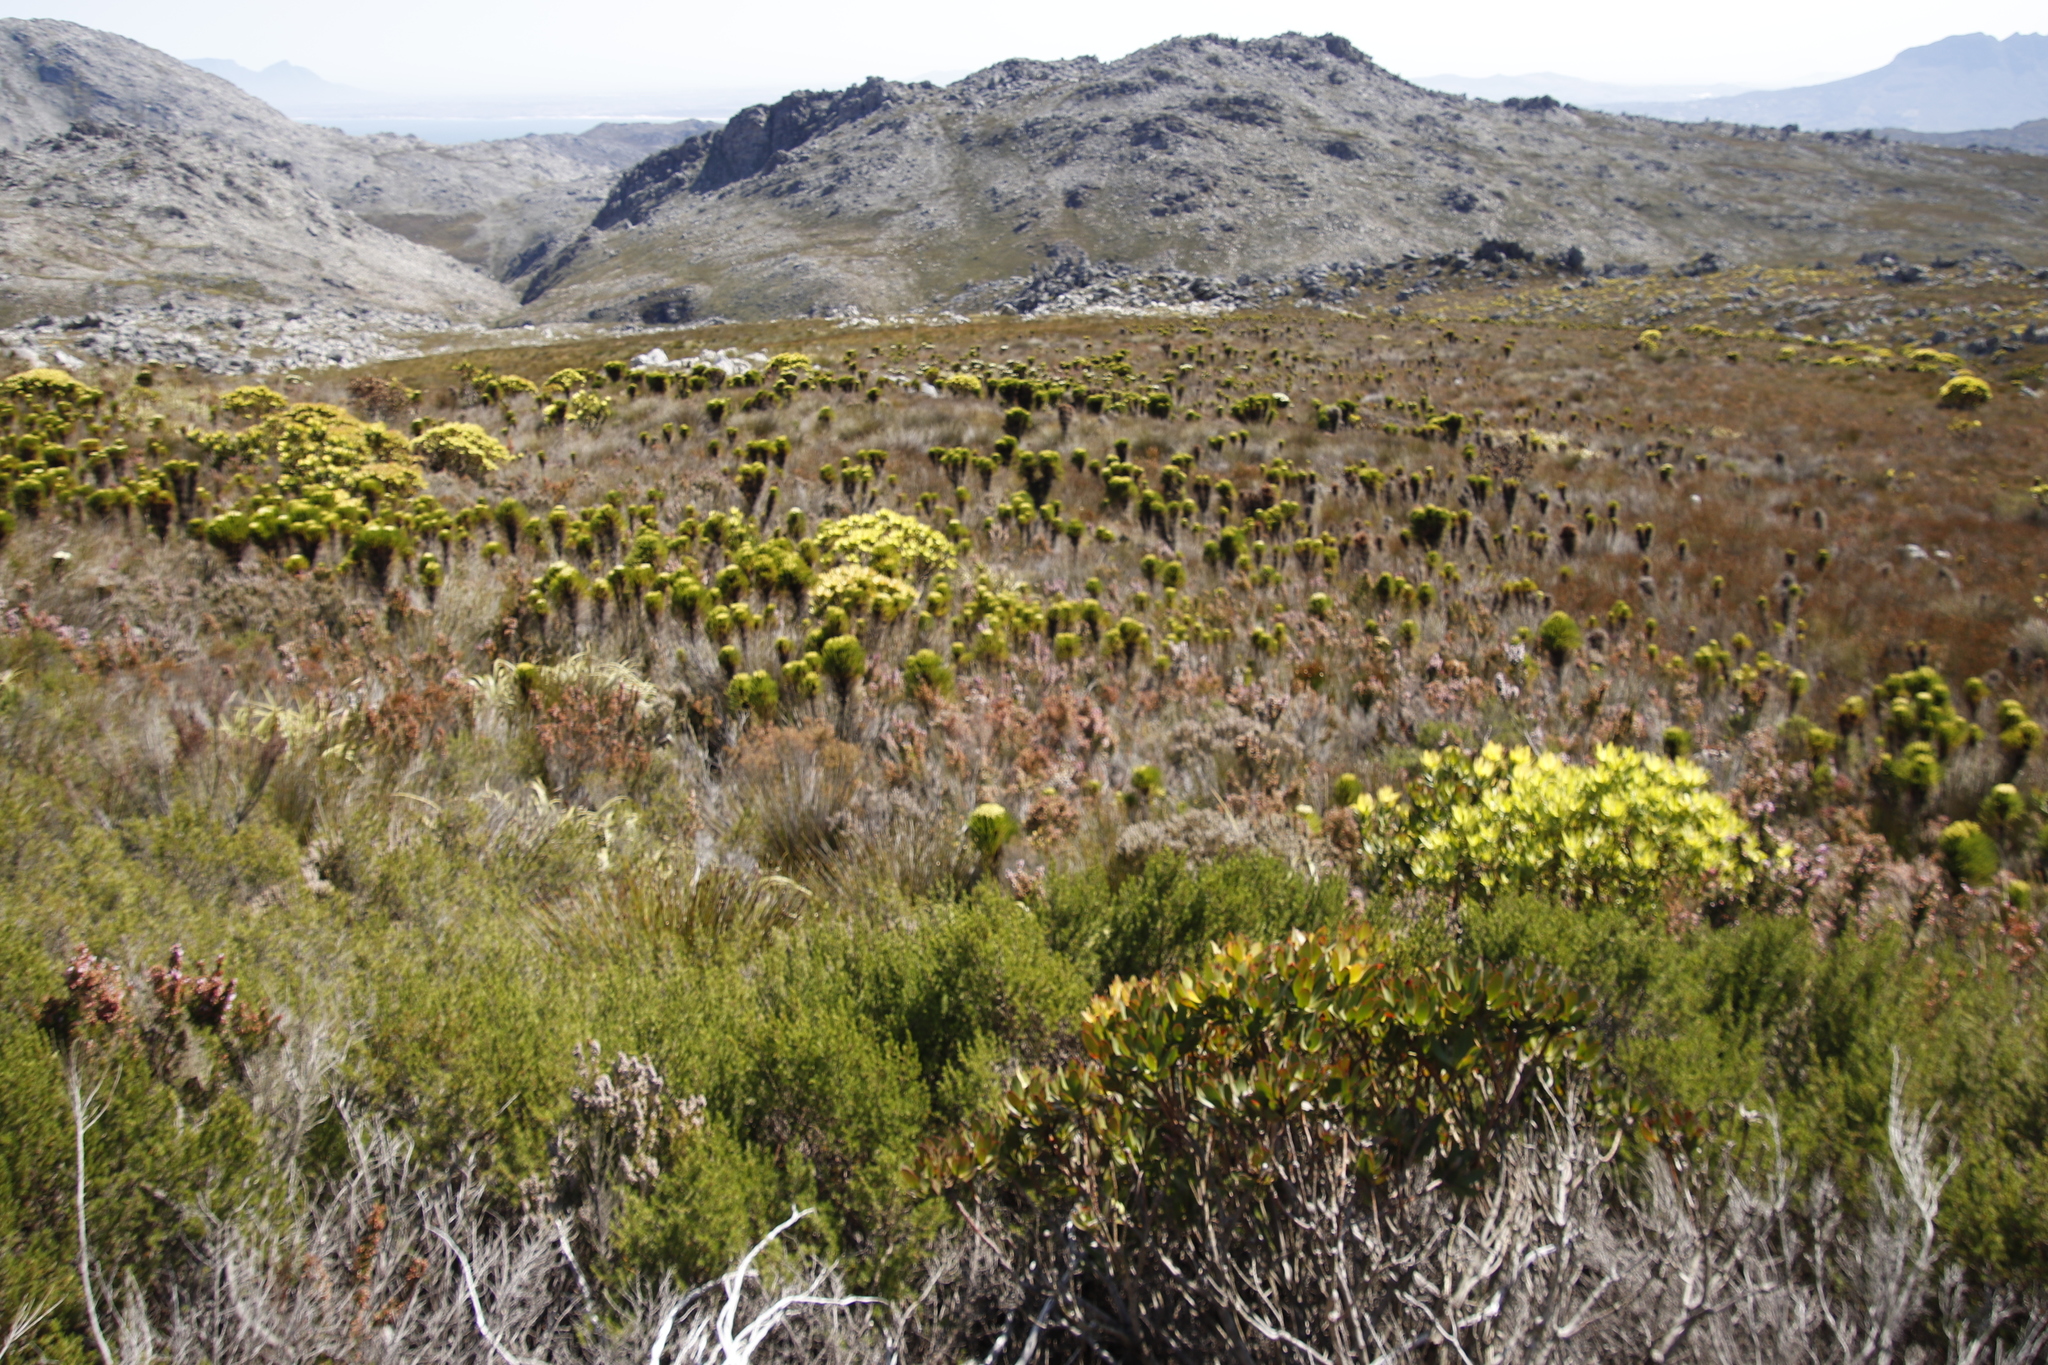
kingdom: Plantae
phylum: Tracheophyta
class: Magnoliopsida
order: Proteales
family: Proteaceae
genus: Leucadendron
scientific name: Leucadendron gandogeri
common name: Broad-leaf conebush
